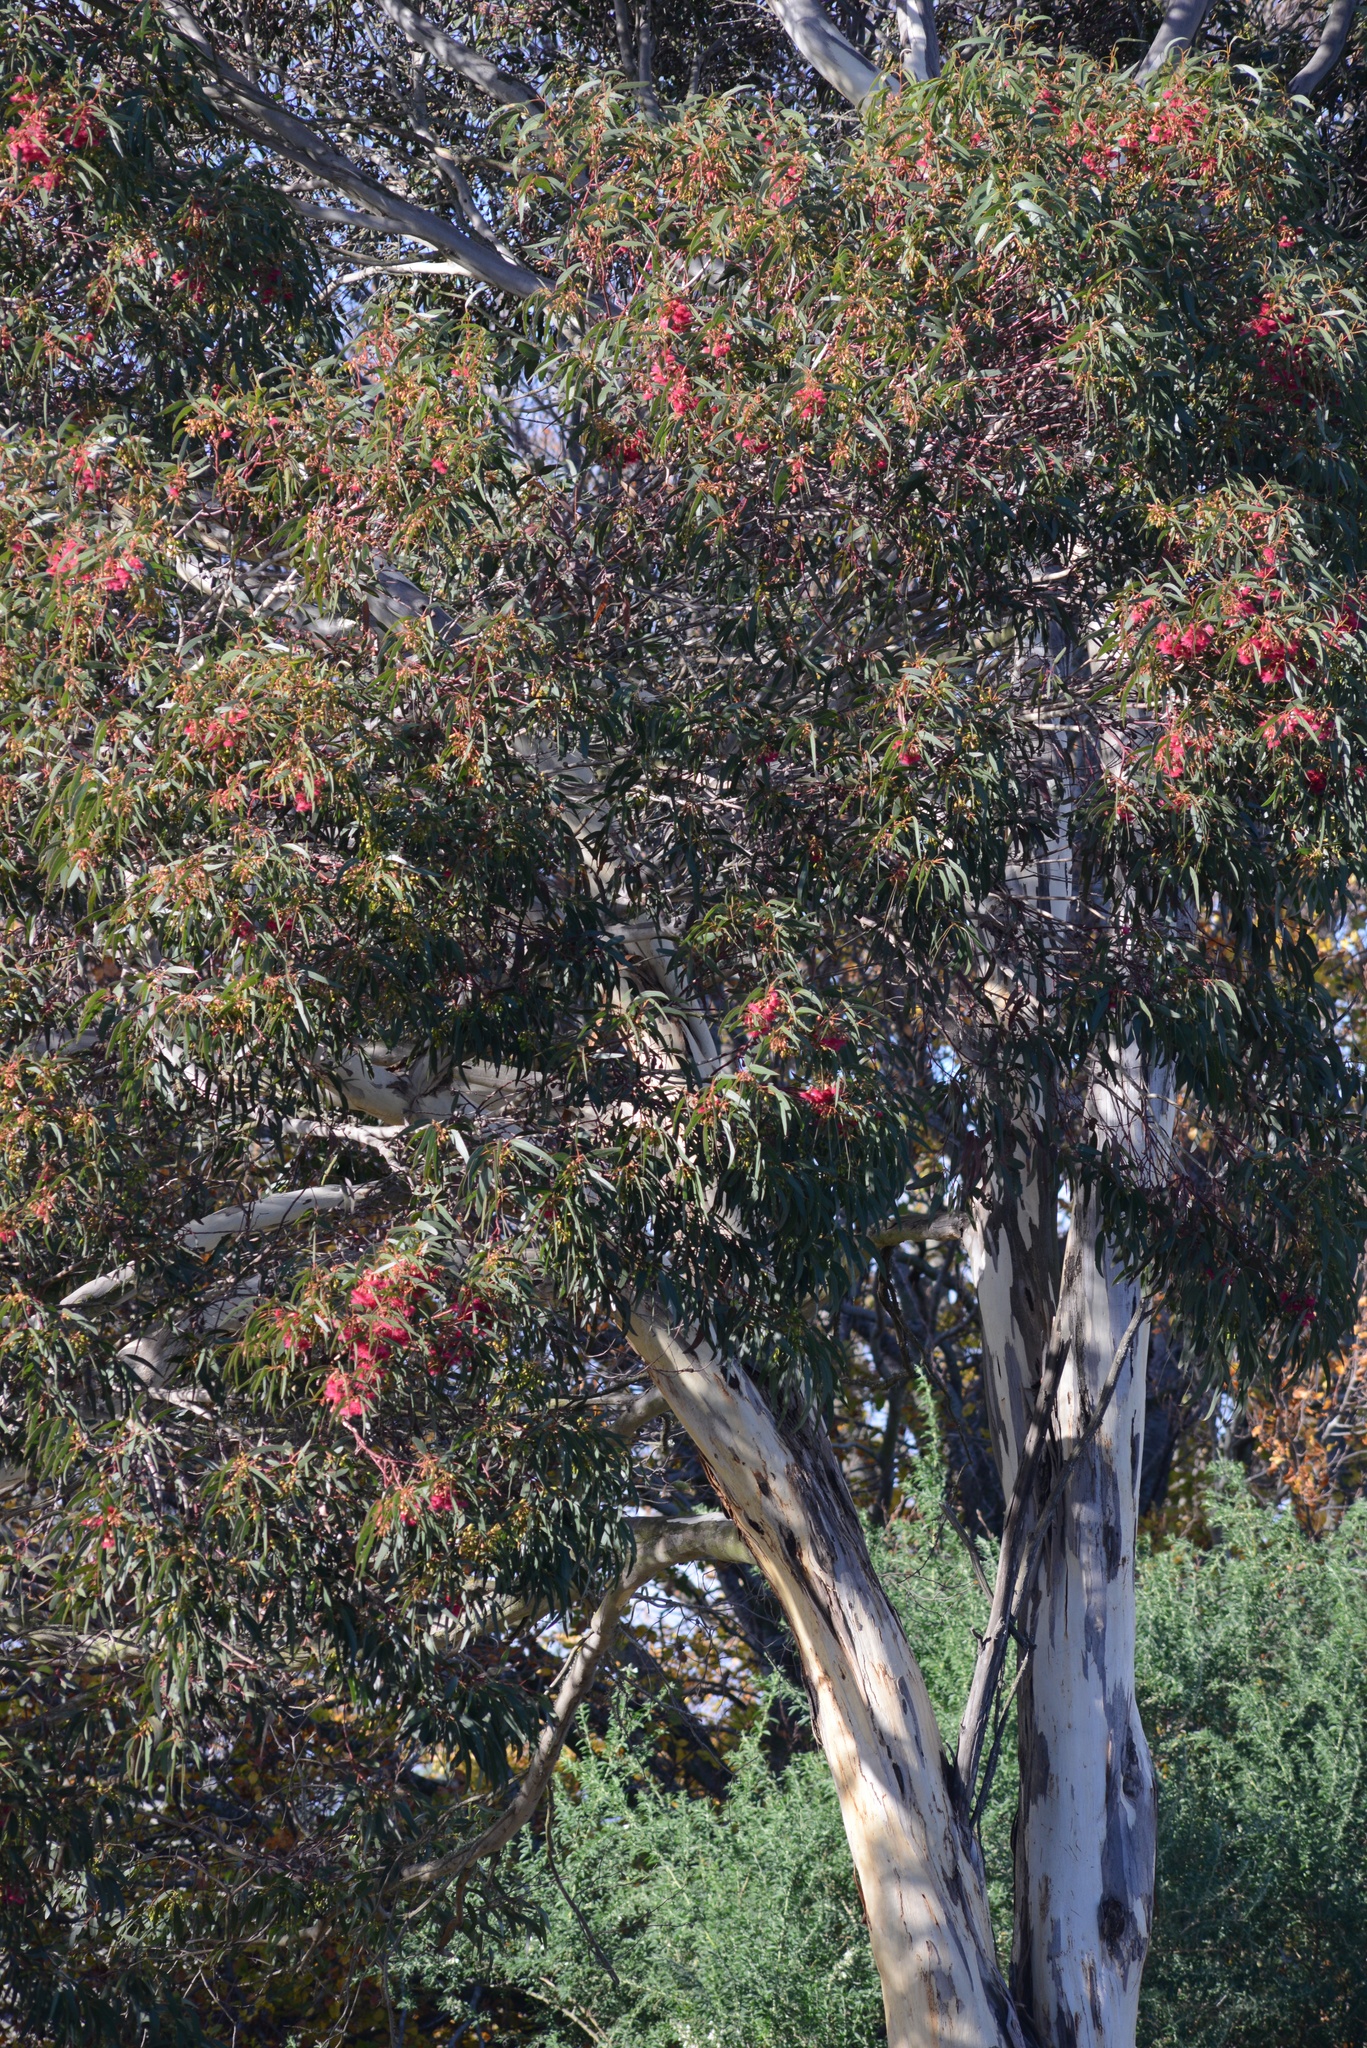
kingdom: Plantae
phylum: Tracheophyta
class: Magnoliopsida
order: Myrtales
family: Myrtaceae
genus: Eucalyptus
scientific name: Eucalyptus leucoxylon
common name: Blue gum
